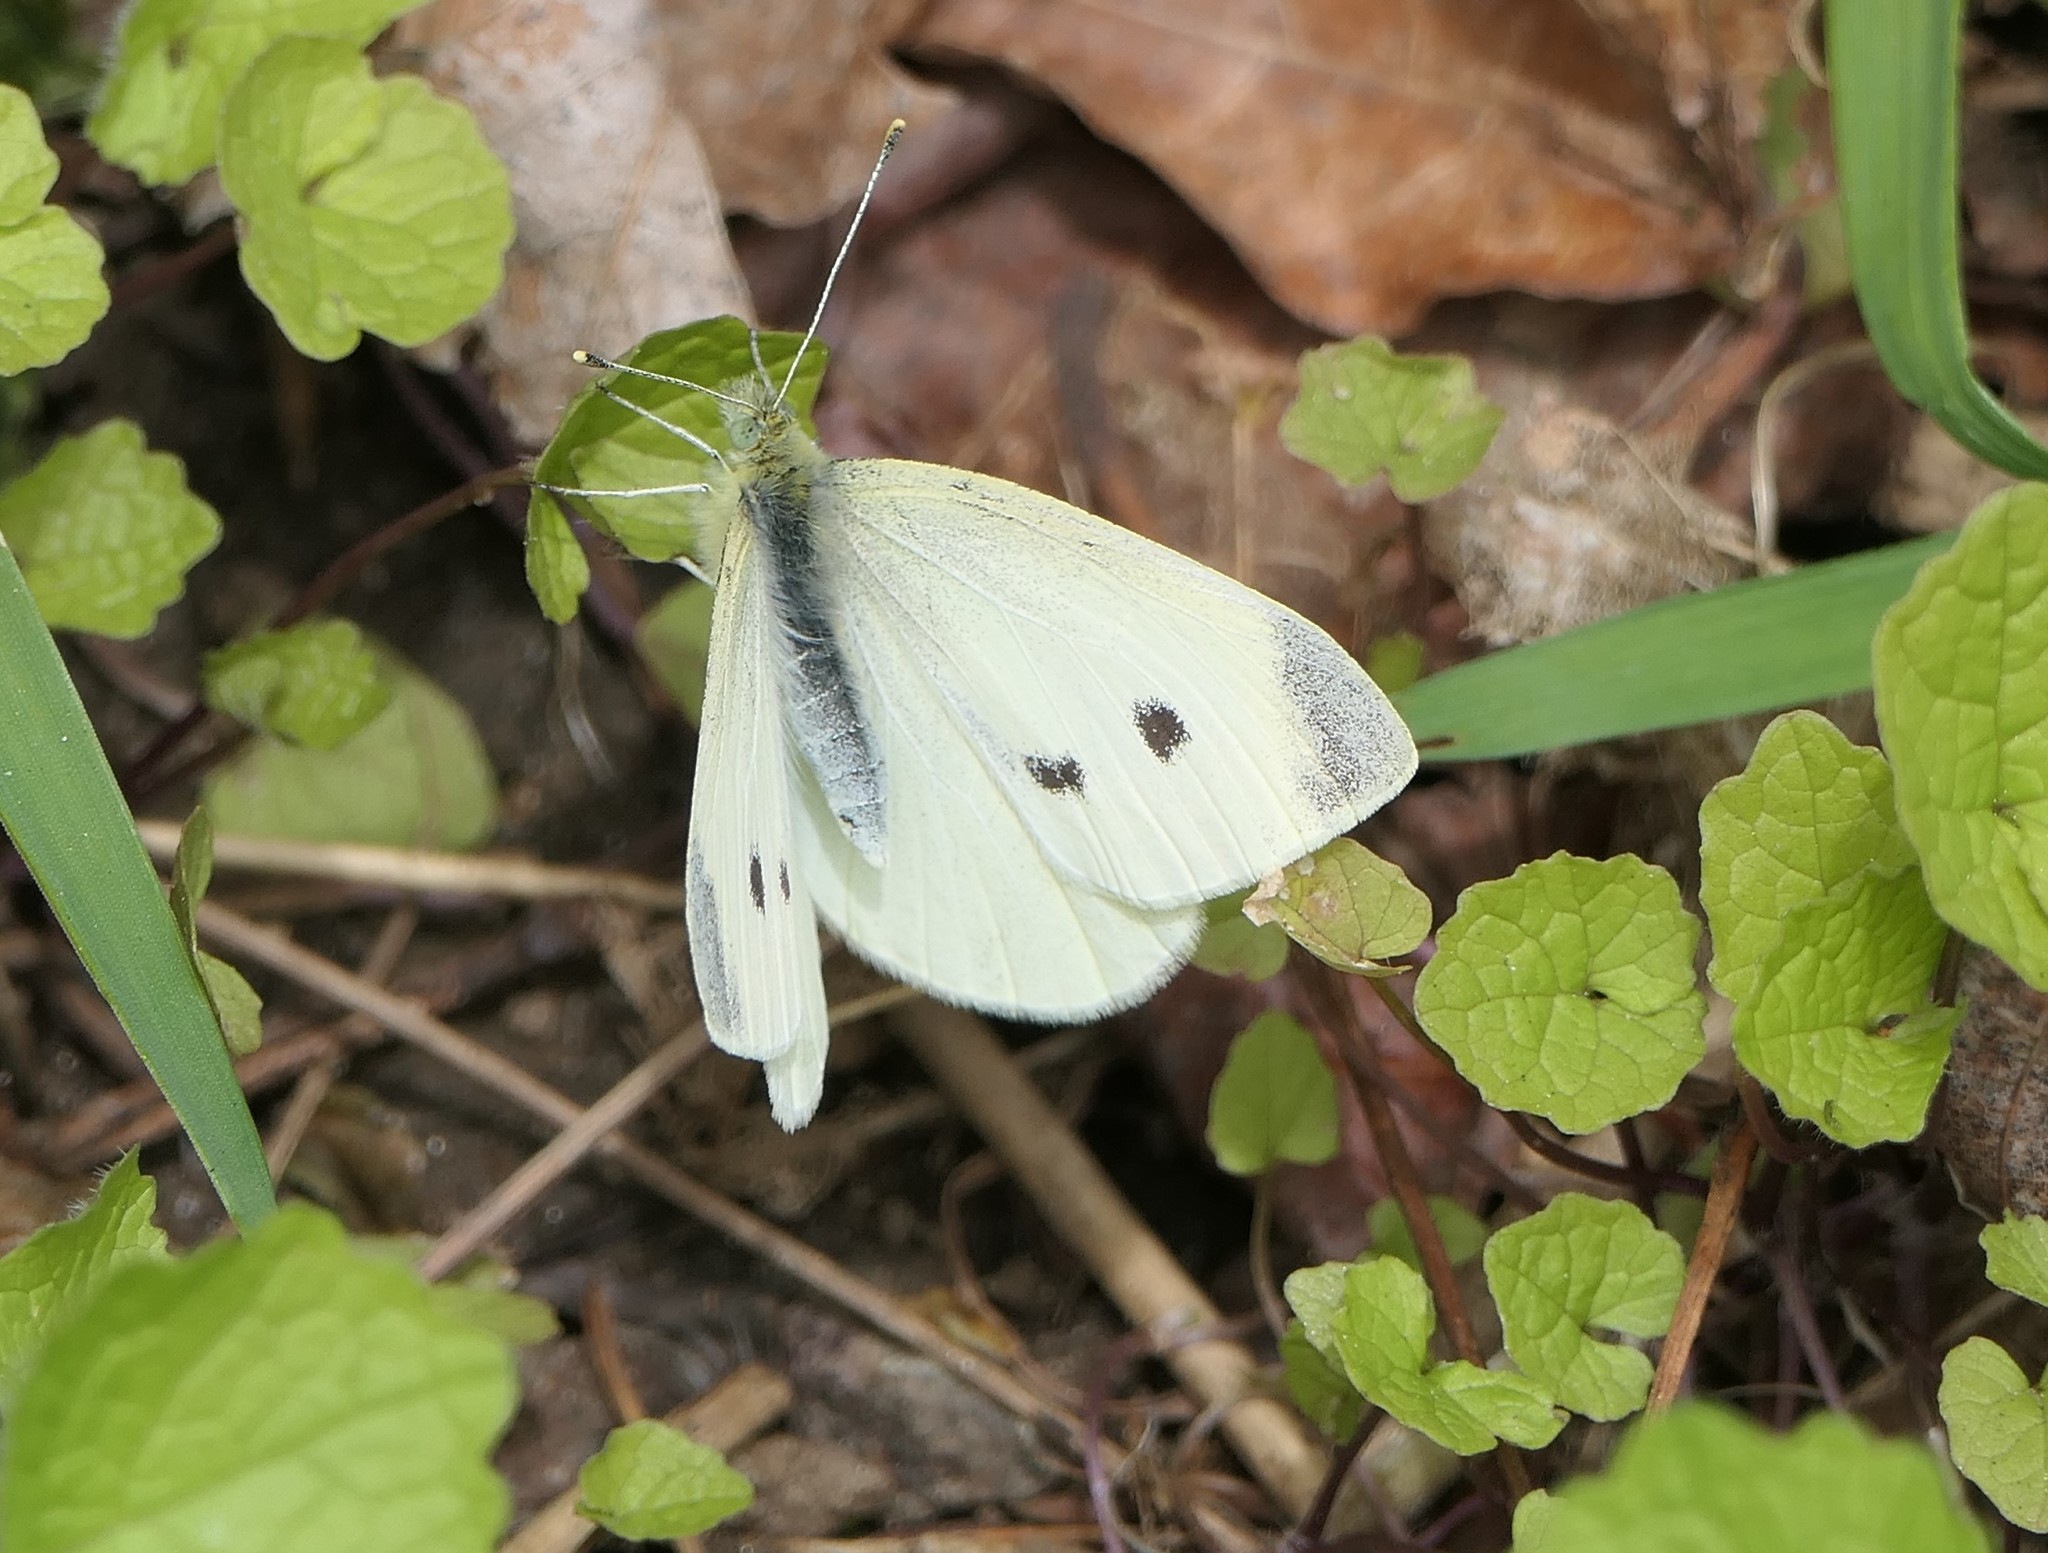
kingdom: Animalia
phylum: Arthropoda
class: Insecta
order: Lepidoptera
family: Pieridae
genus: Pieris
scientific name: Pieris rapae
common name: Small white
